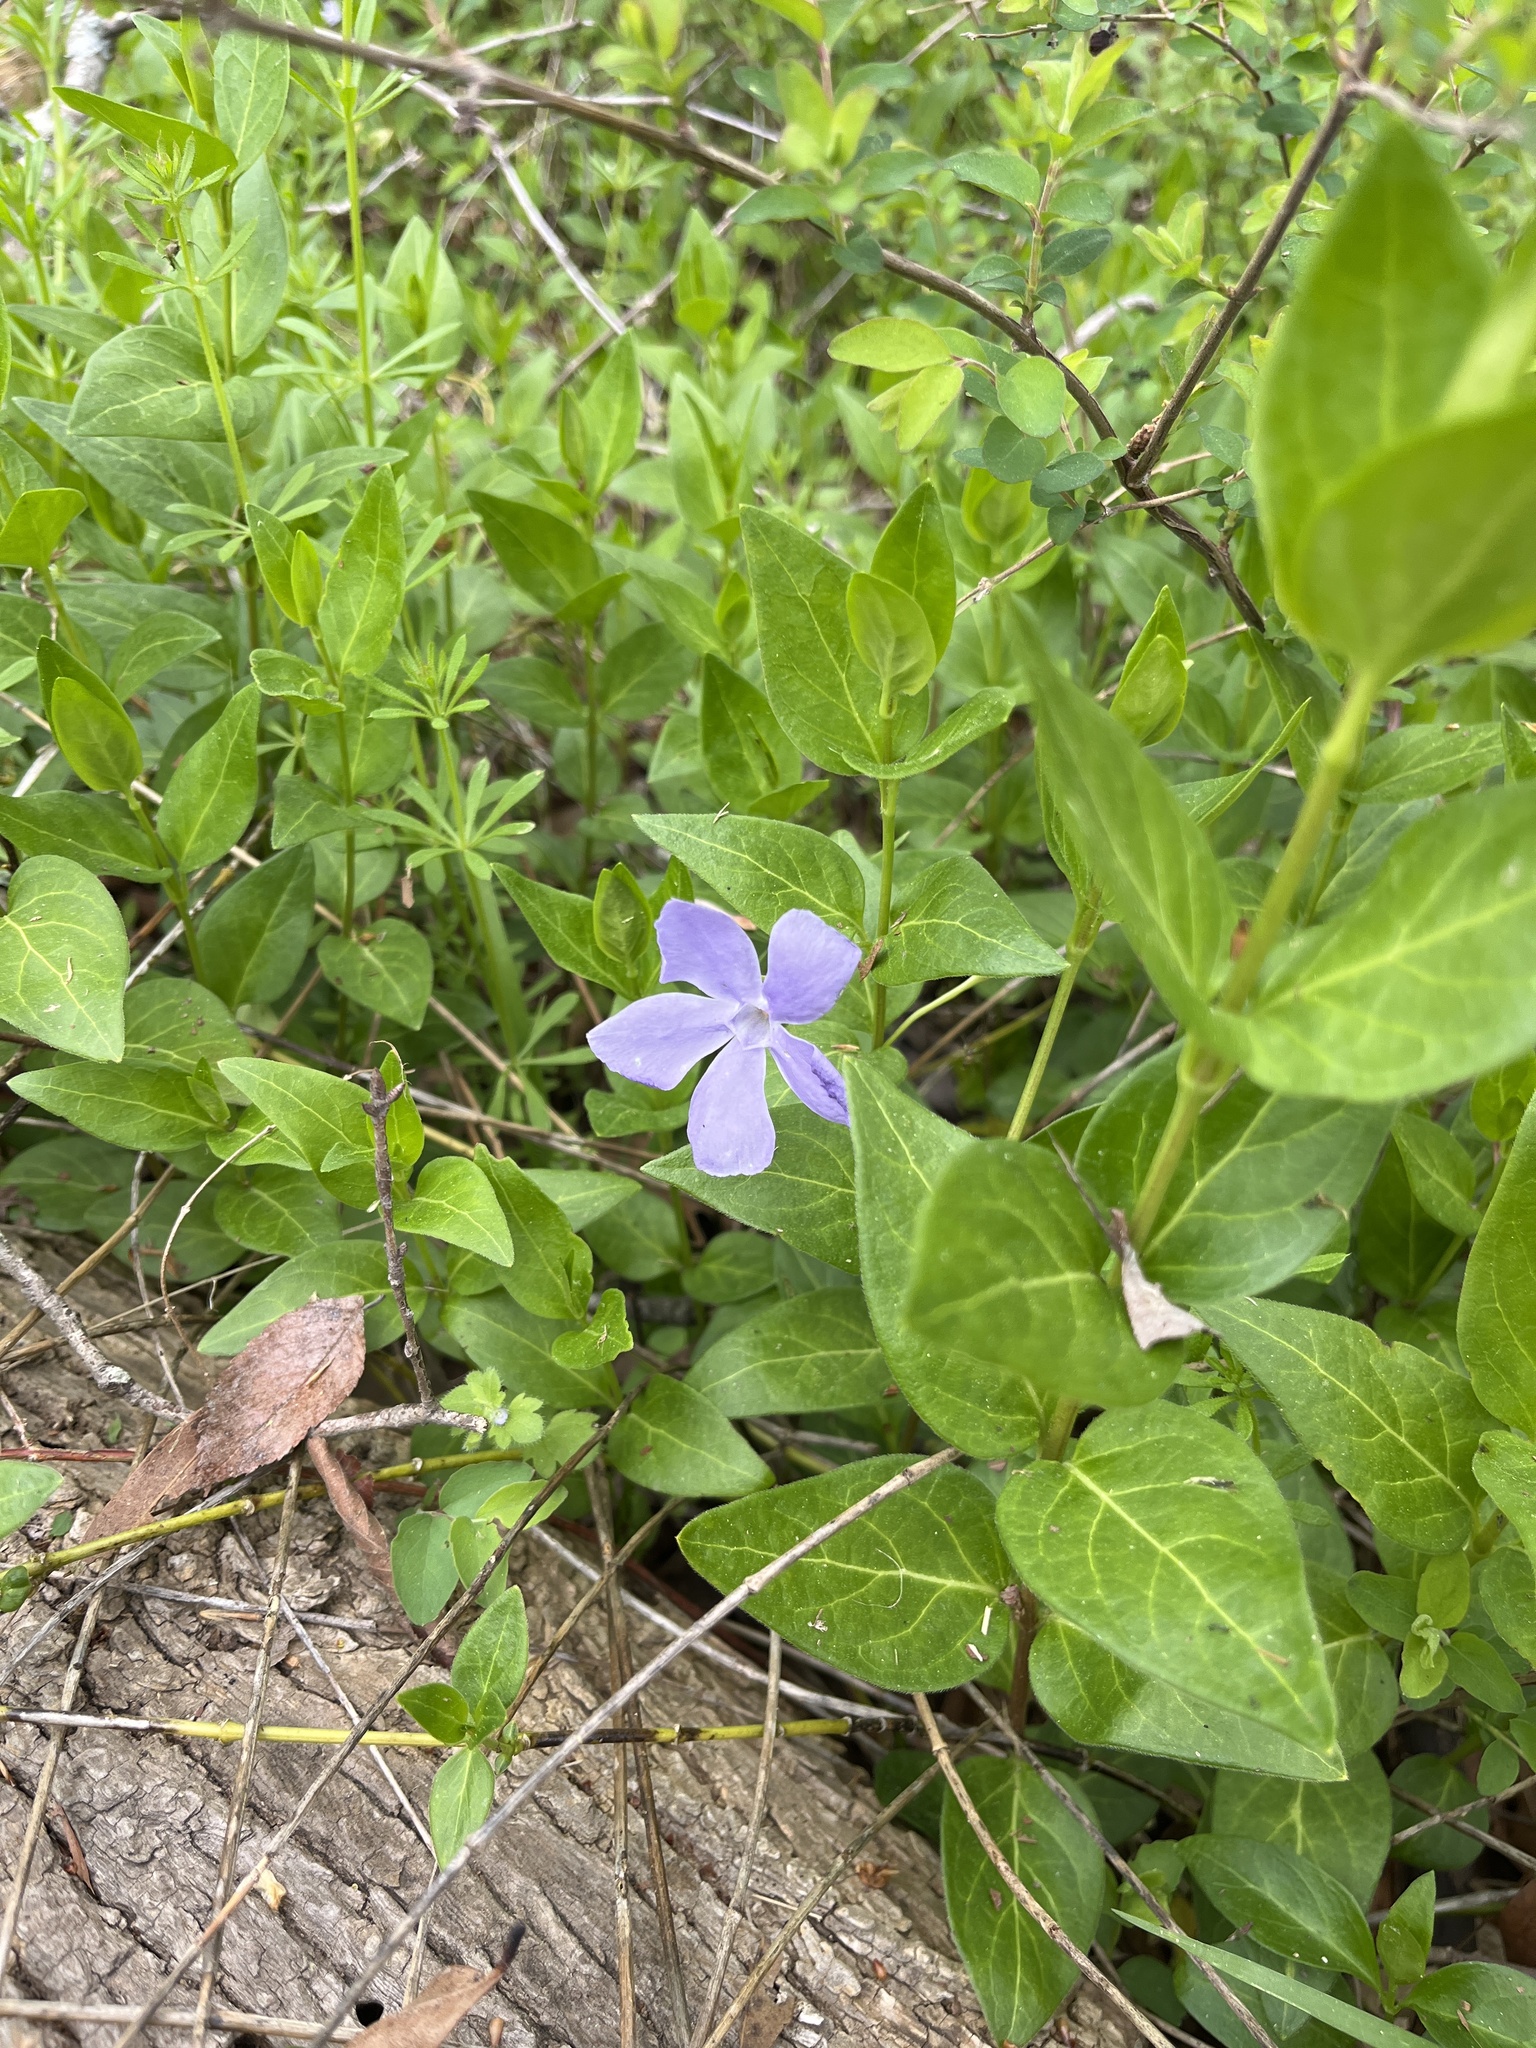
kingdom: Plantae
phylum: Tracheophyta
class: Magnoliopsida
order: Gentianales
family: Apocynaceae
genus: Vinca
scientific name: Vinca major
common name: Greater periwinkle
